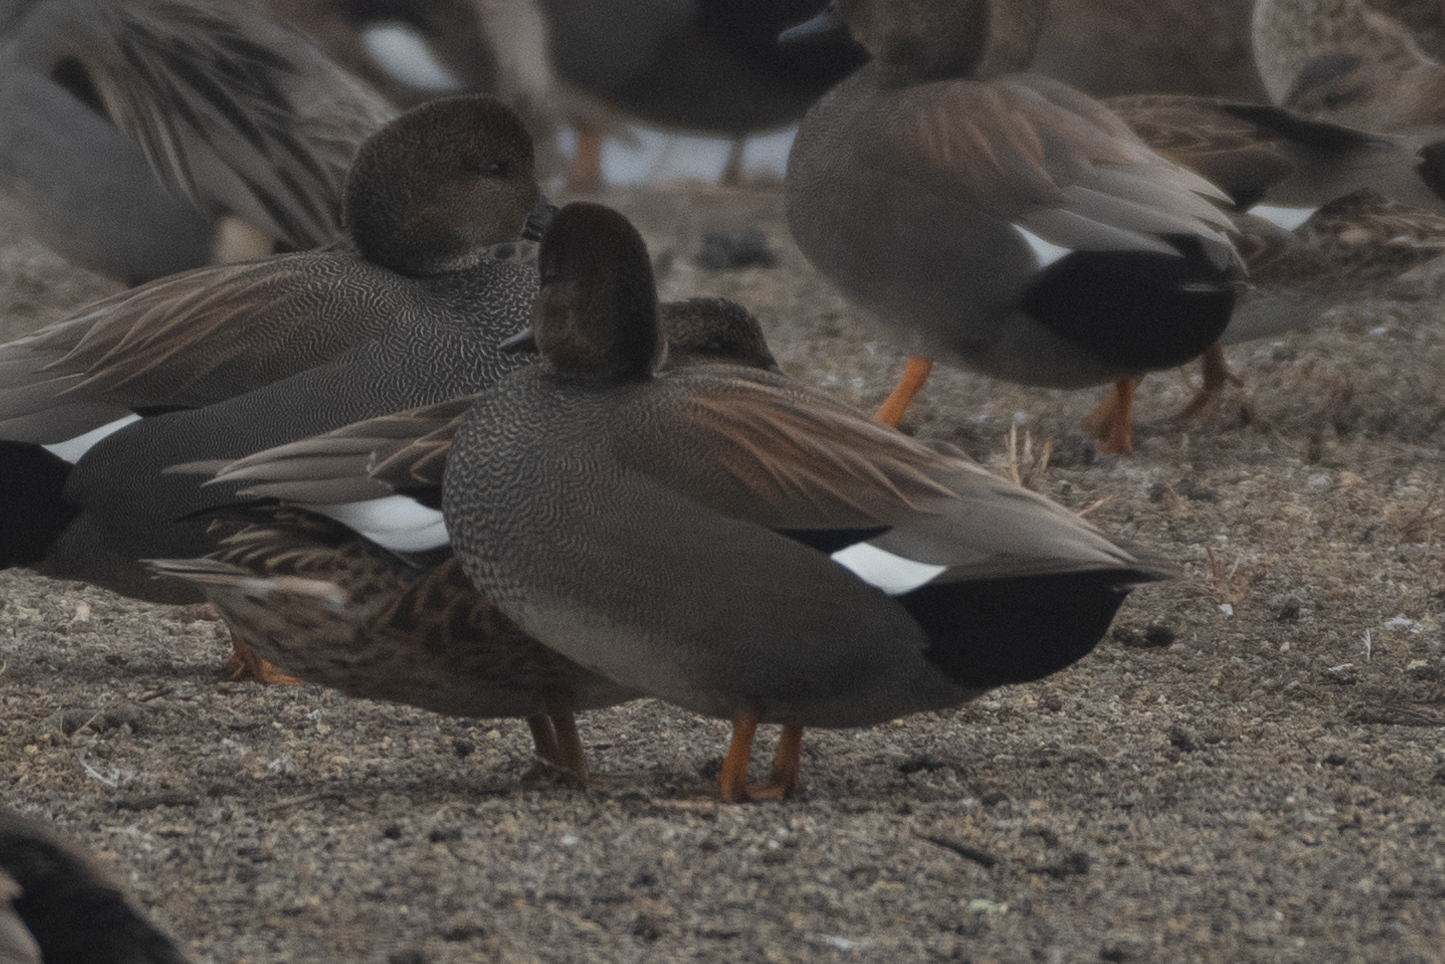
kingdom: Animalia
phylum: Chordata
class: Aves
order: Anseriformes
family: Anatidae
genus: Mareca
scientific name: Mareca strepera
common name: Gadwall
